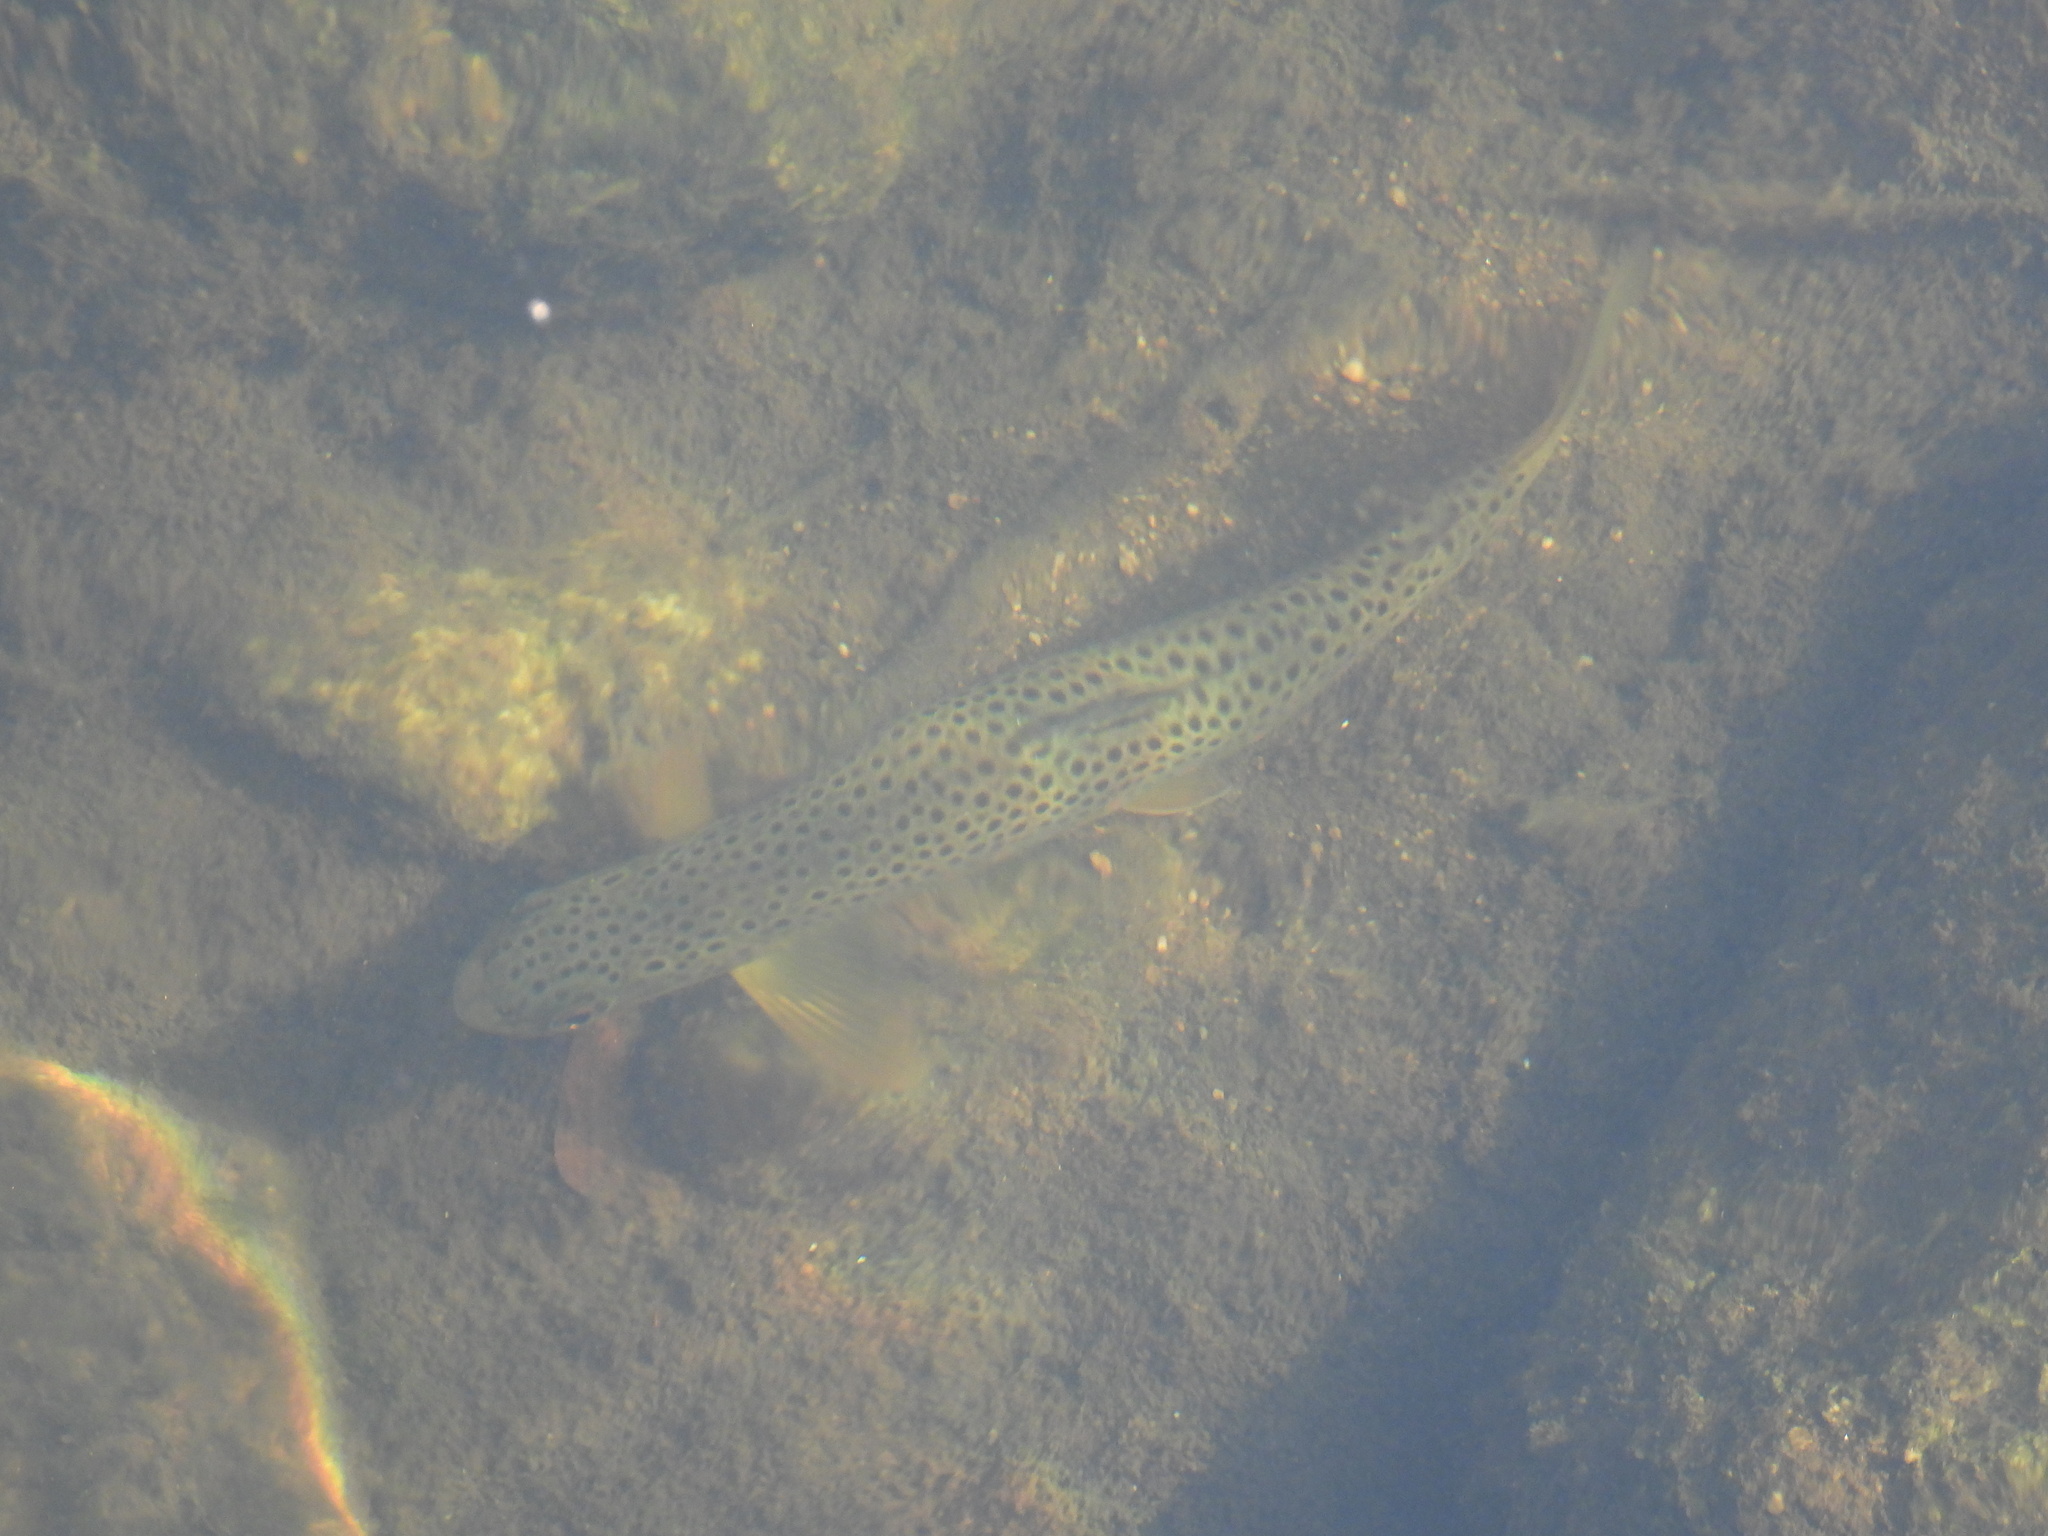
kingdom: Animalia
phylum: Chordata
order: Salmoniformes
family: Salmonidae
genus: Salmo
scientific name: Salmo trutta
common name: Brown trout
